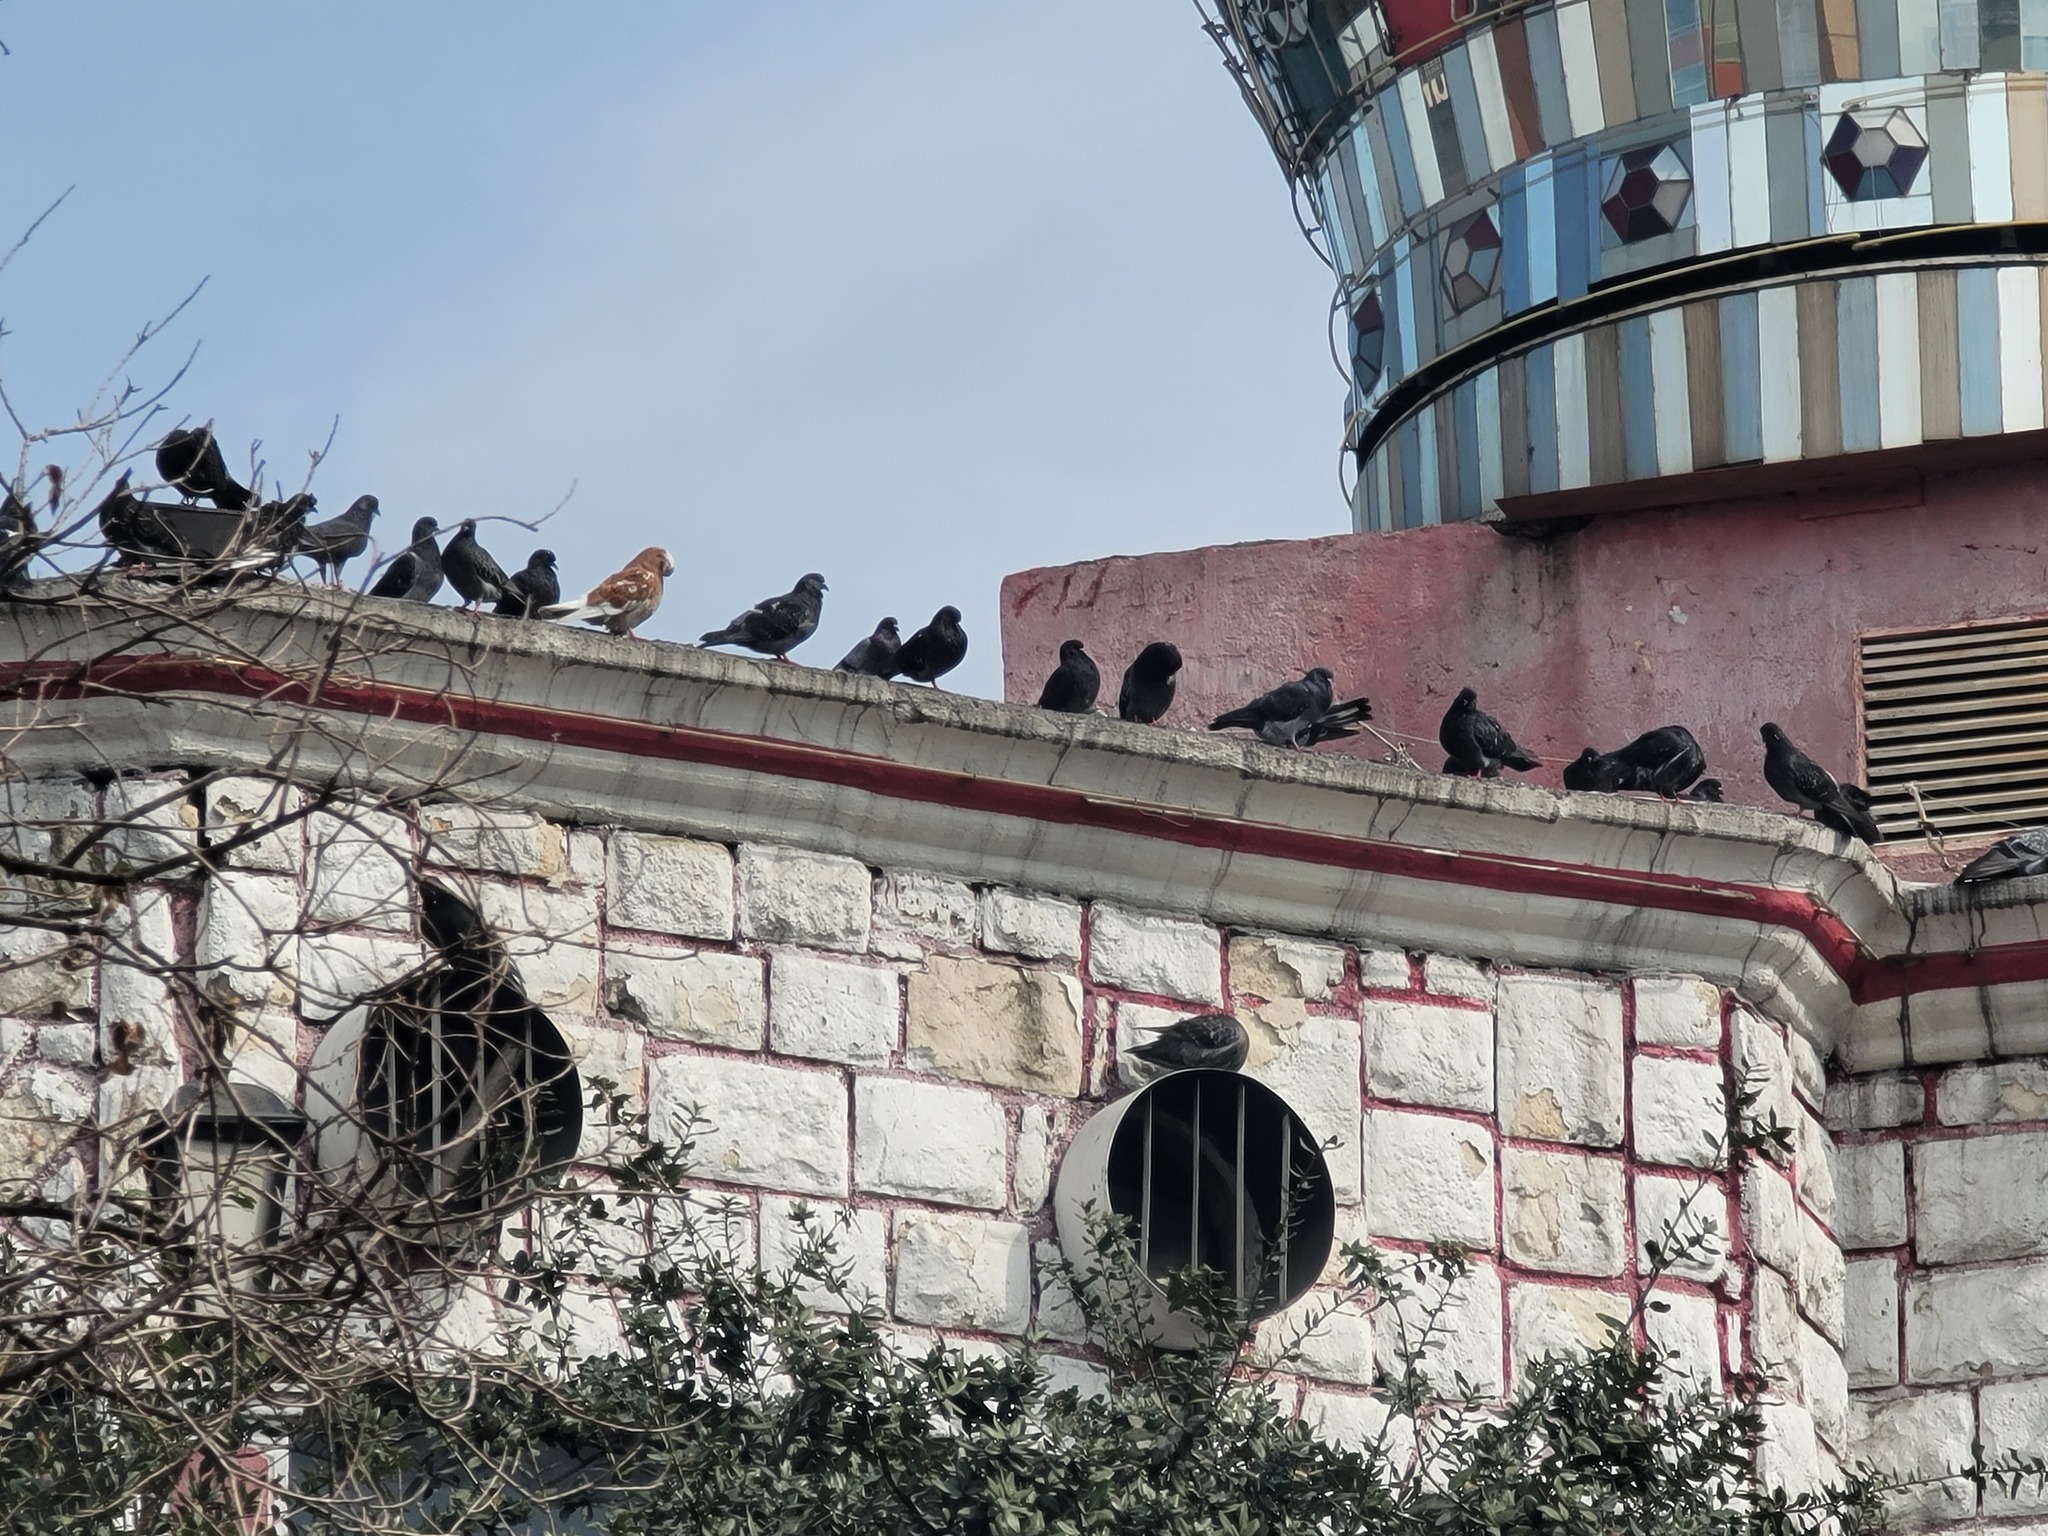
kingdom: Animalia
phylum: Chordata
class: Aves
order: Columbiformes
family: Columbidae
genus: Columba
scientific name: Columba livia
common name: Rock pigeon
